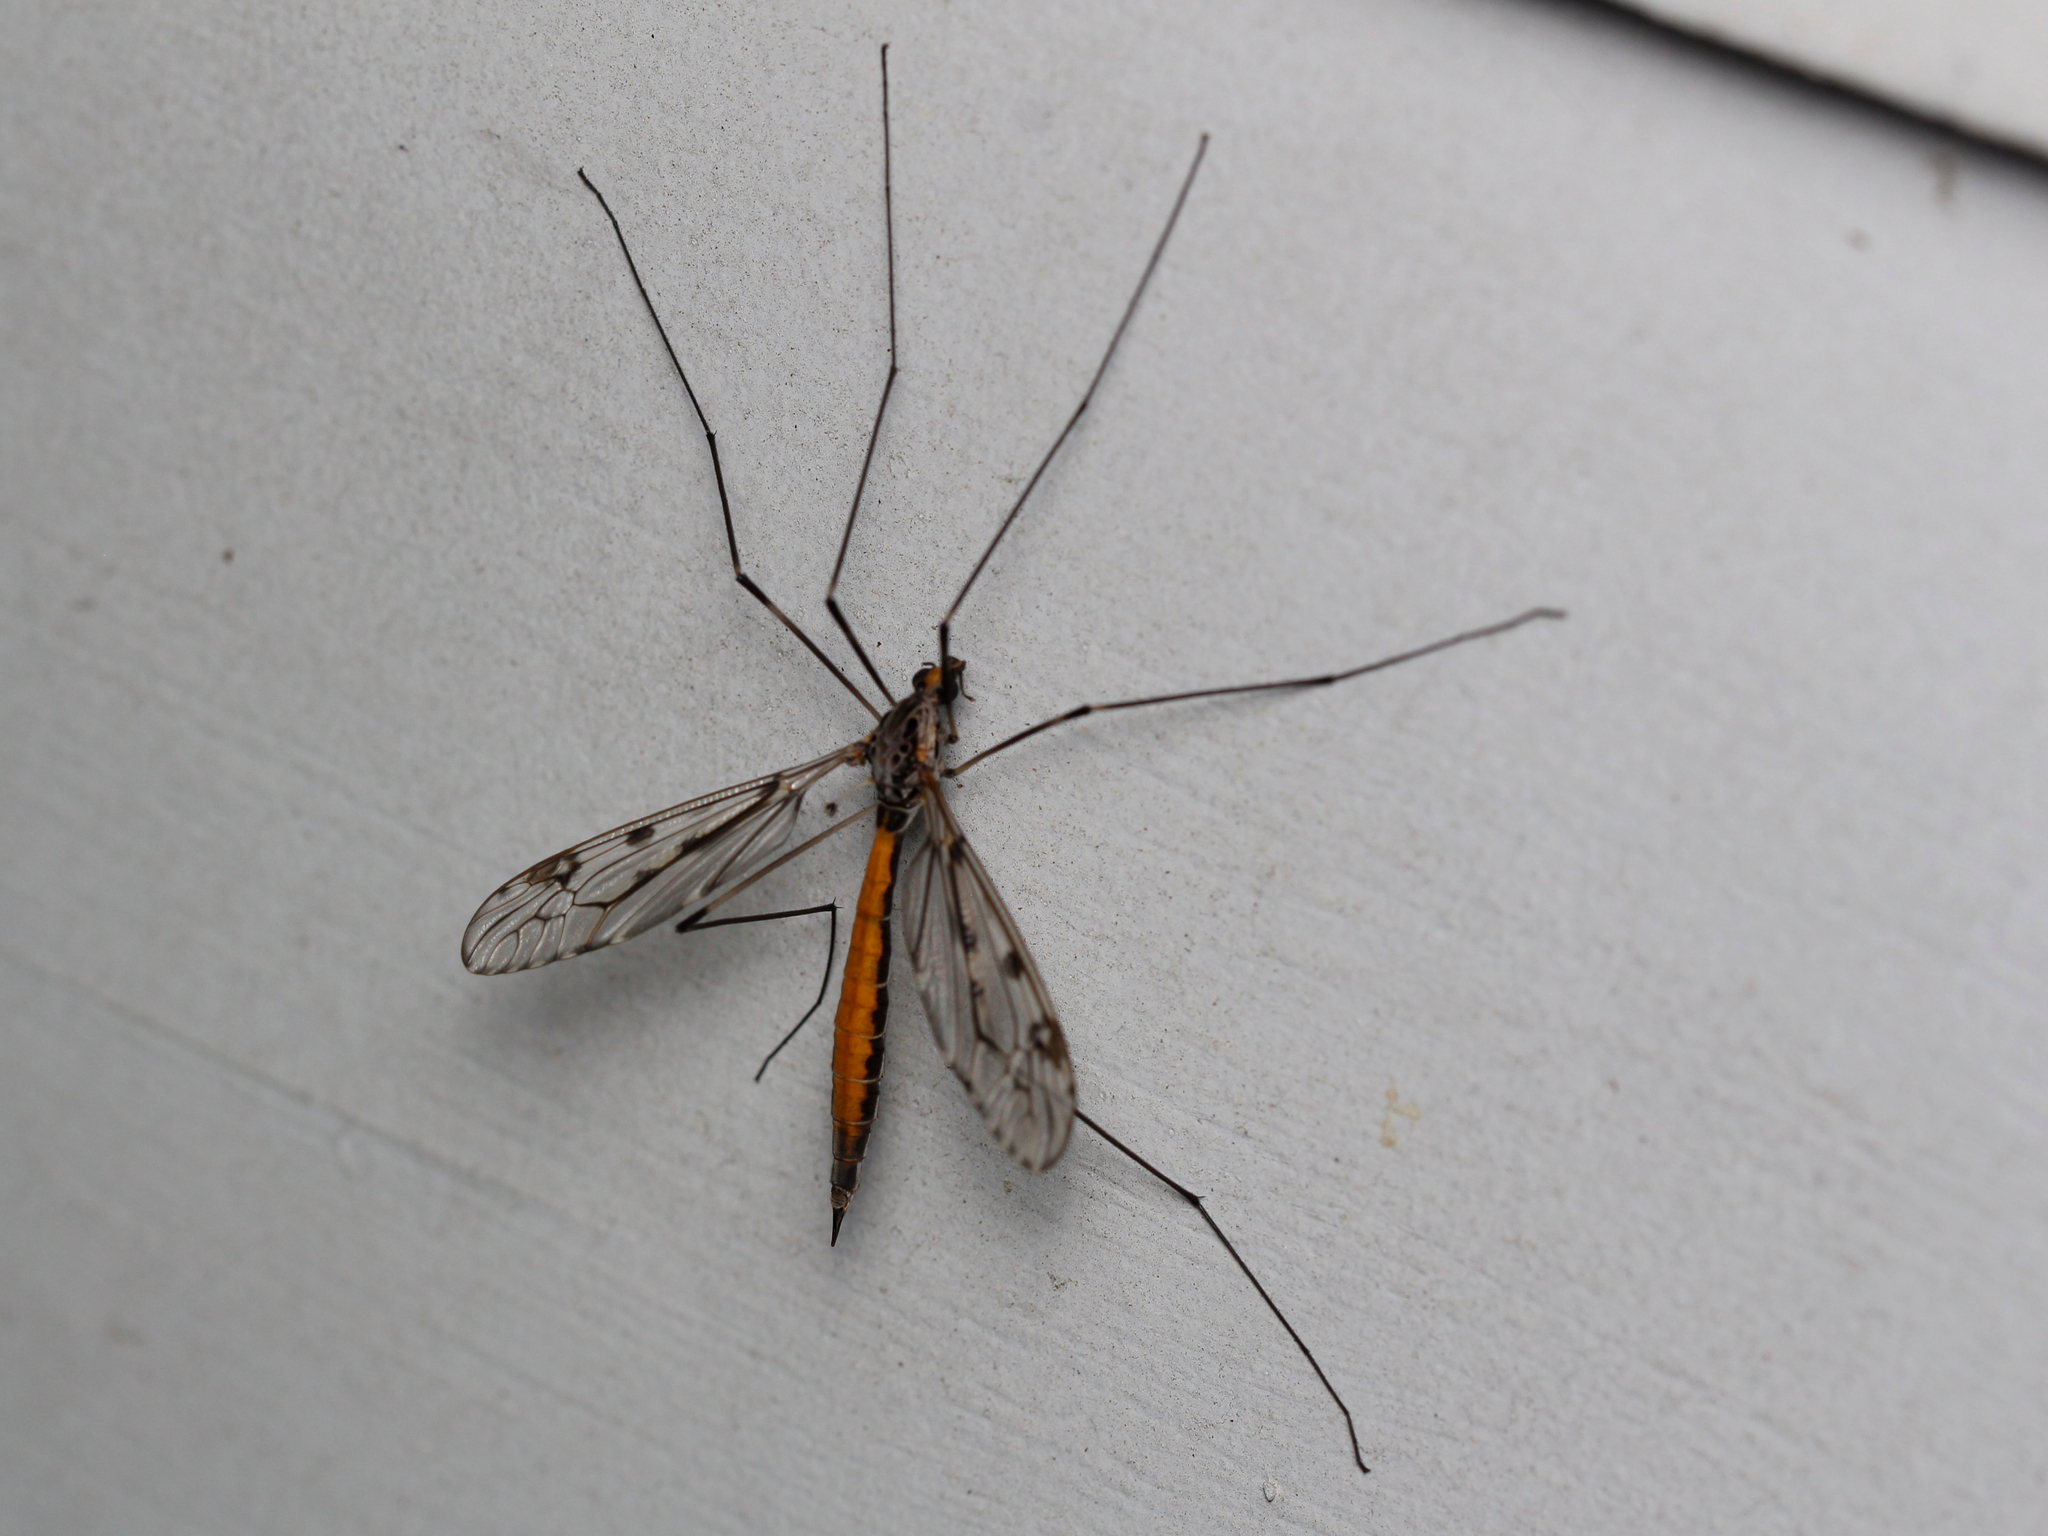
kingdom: Animalia
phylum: Arthropoda
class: Insecta
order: Diptera
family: Tipulidae
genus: Tipula
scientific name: Tipula abdominalis
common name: Giant crane fly
